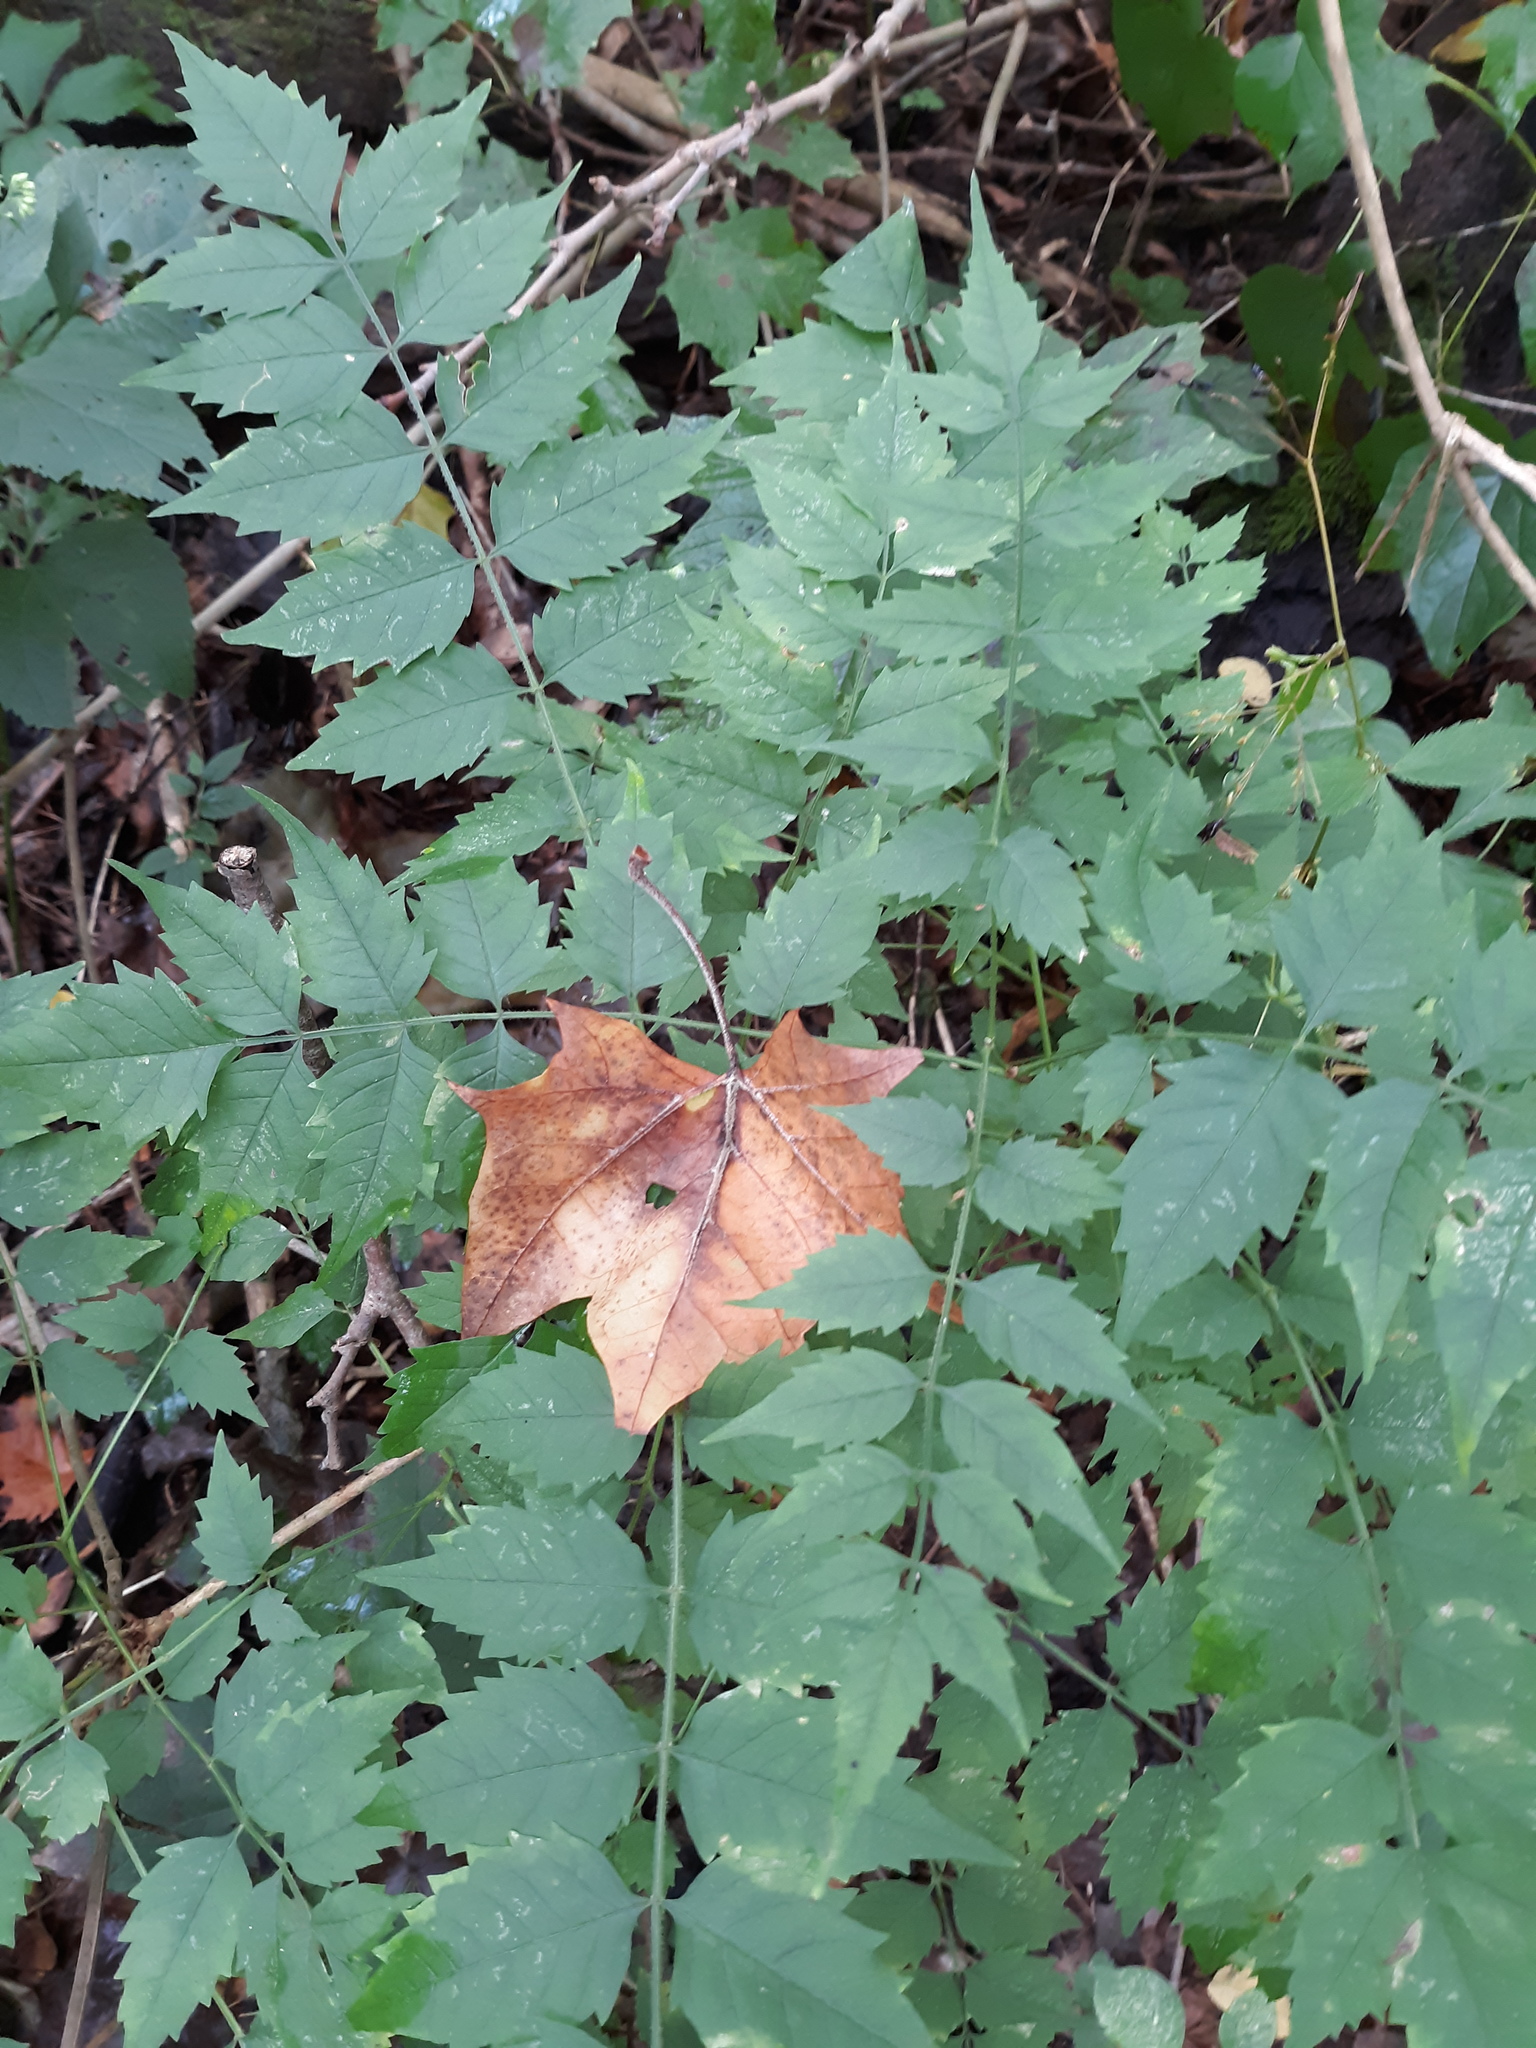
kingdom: Plantae
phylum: Tracheophyta
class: Magnoliopsida
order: Lamiales
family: Bignoniaceae
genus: Campsis
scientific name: Campsis radicans
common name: Trumpet-creeper
